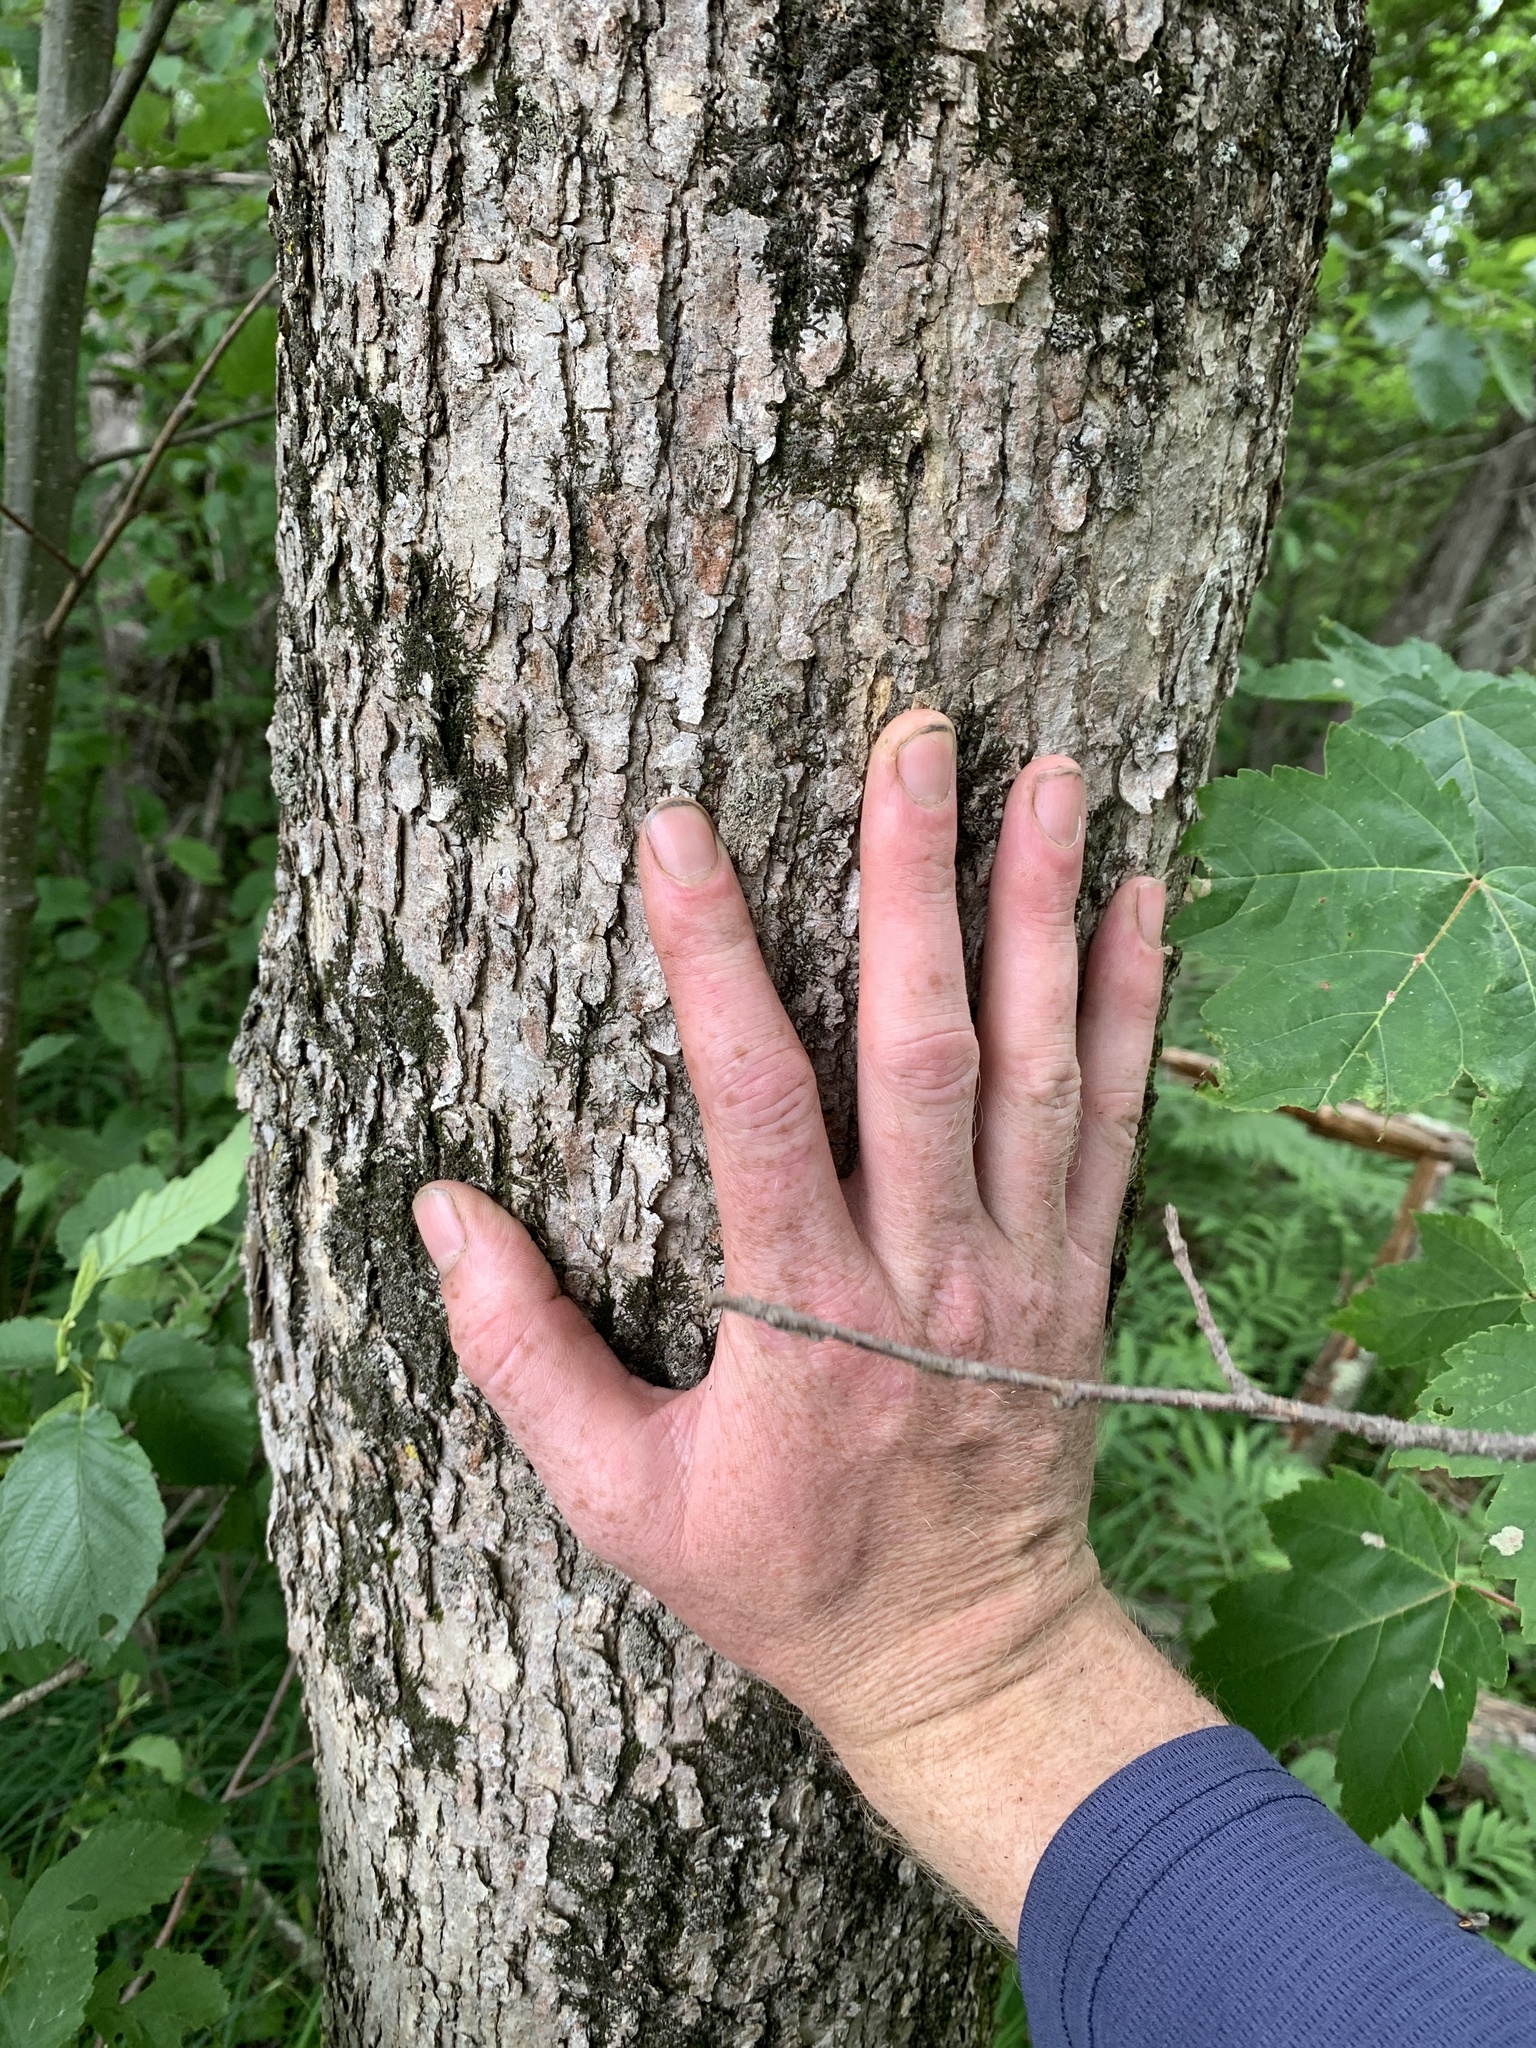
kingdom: Plantae
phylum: Tracheophyta
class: Magnoliopsida
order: Lamiales
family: Oleaceae
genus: Fraxinus
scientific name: Fraxinus nigra
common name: Black ash
